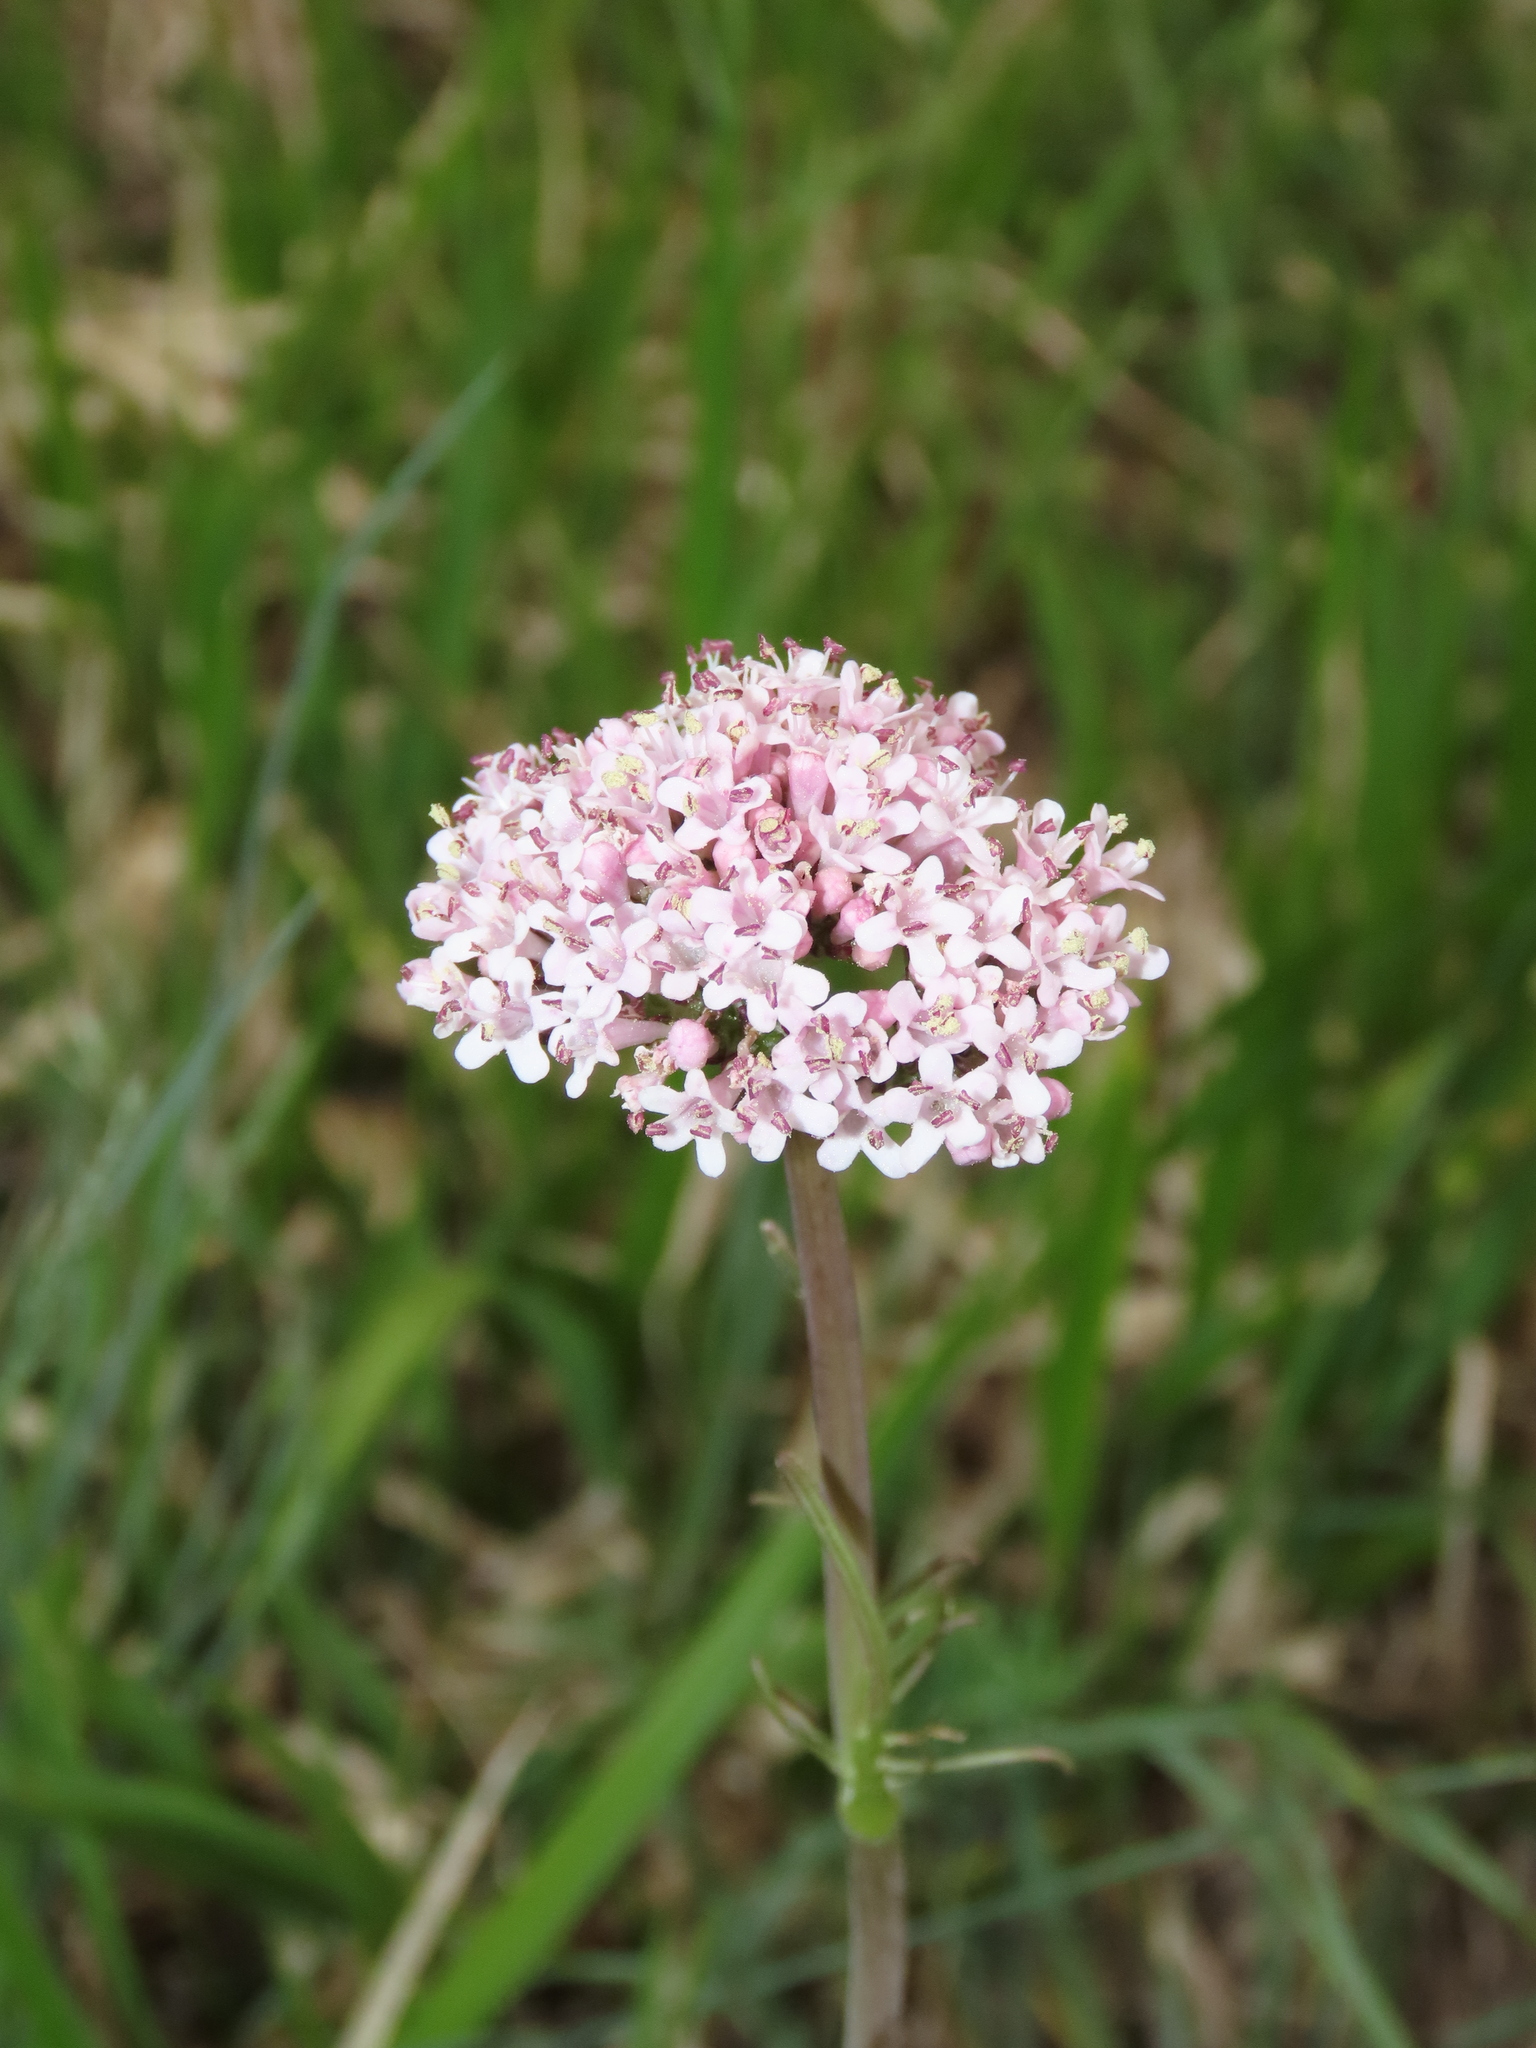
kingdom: Plantae
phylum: Tracheophyta
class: Magnoliopsida
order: Dipsacales
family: Caprifoliaceae
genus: Valeriana
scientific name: Valeriana tuberosa
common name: Tuberous valerian
